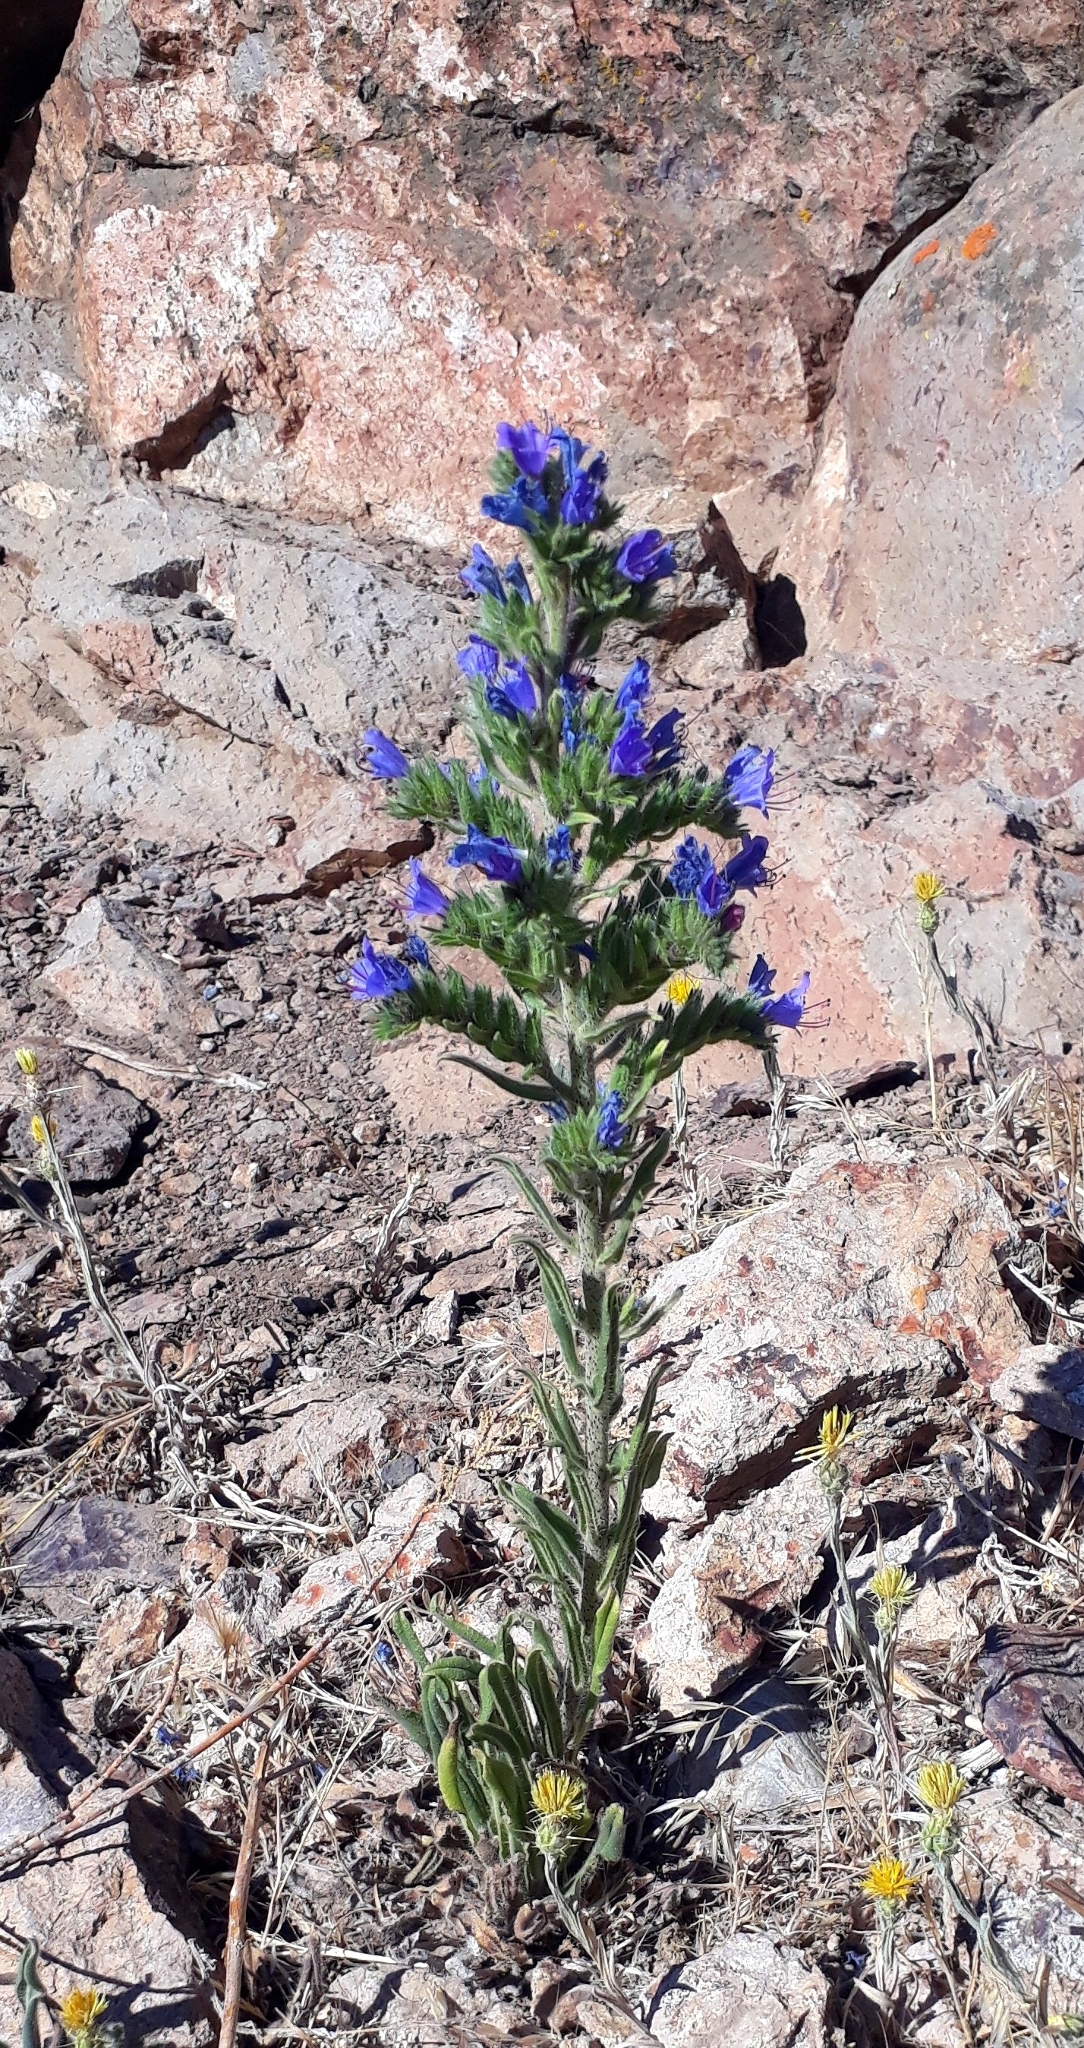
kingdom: Plantae
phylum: Tracheophyta
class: Magnoliopsida
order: Boraginales
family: Boraginaceae
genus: Echium
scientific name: Echium vulgare
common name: Common viper's bugloss
